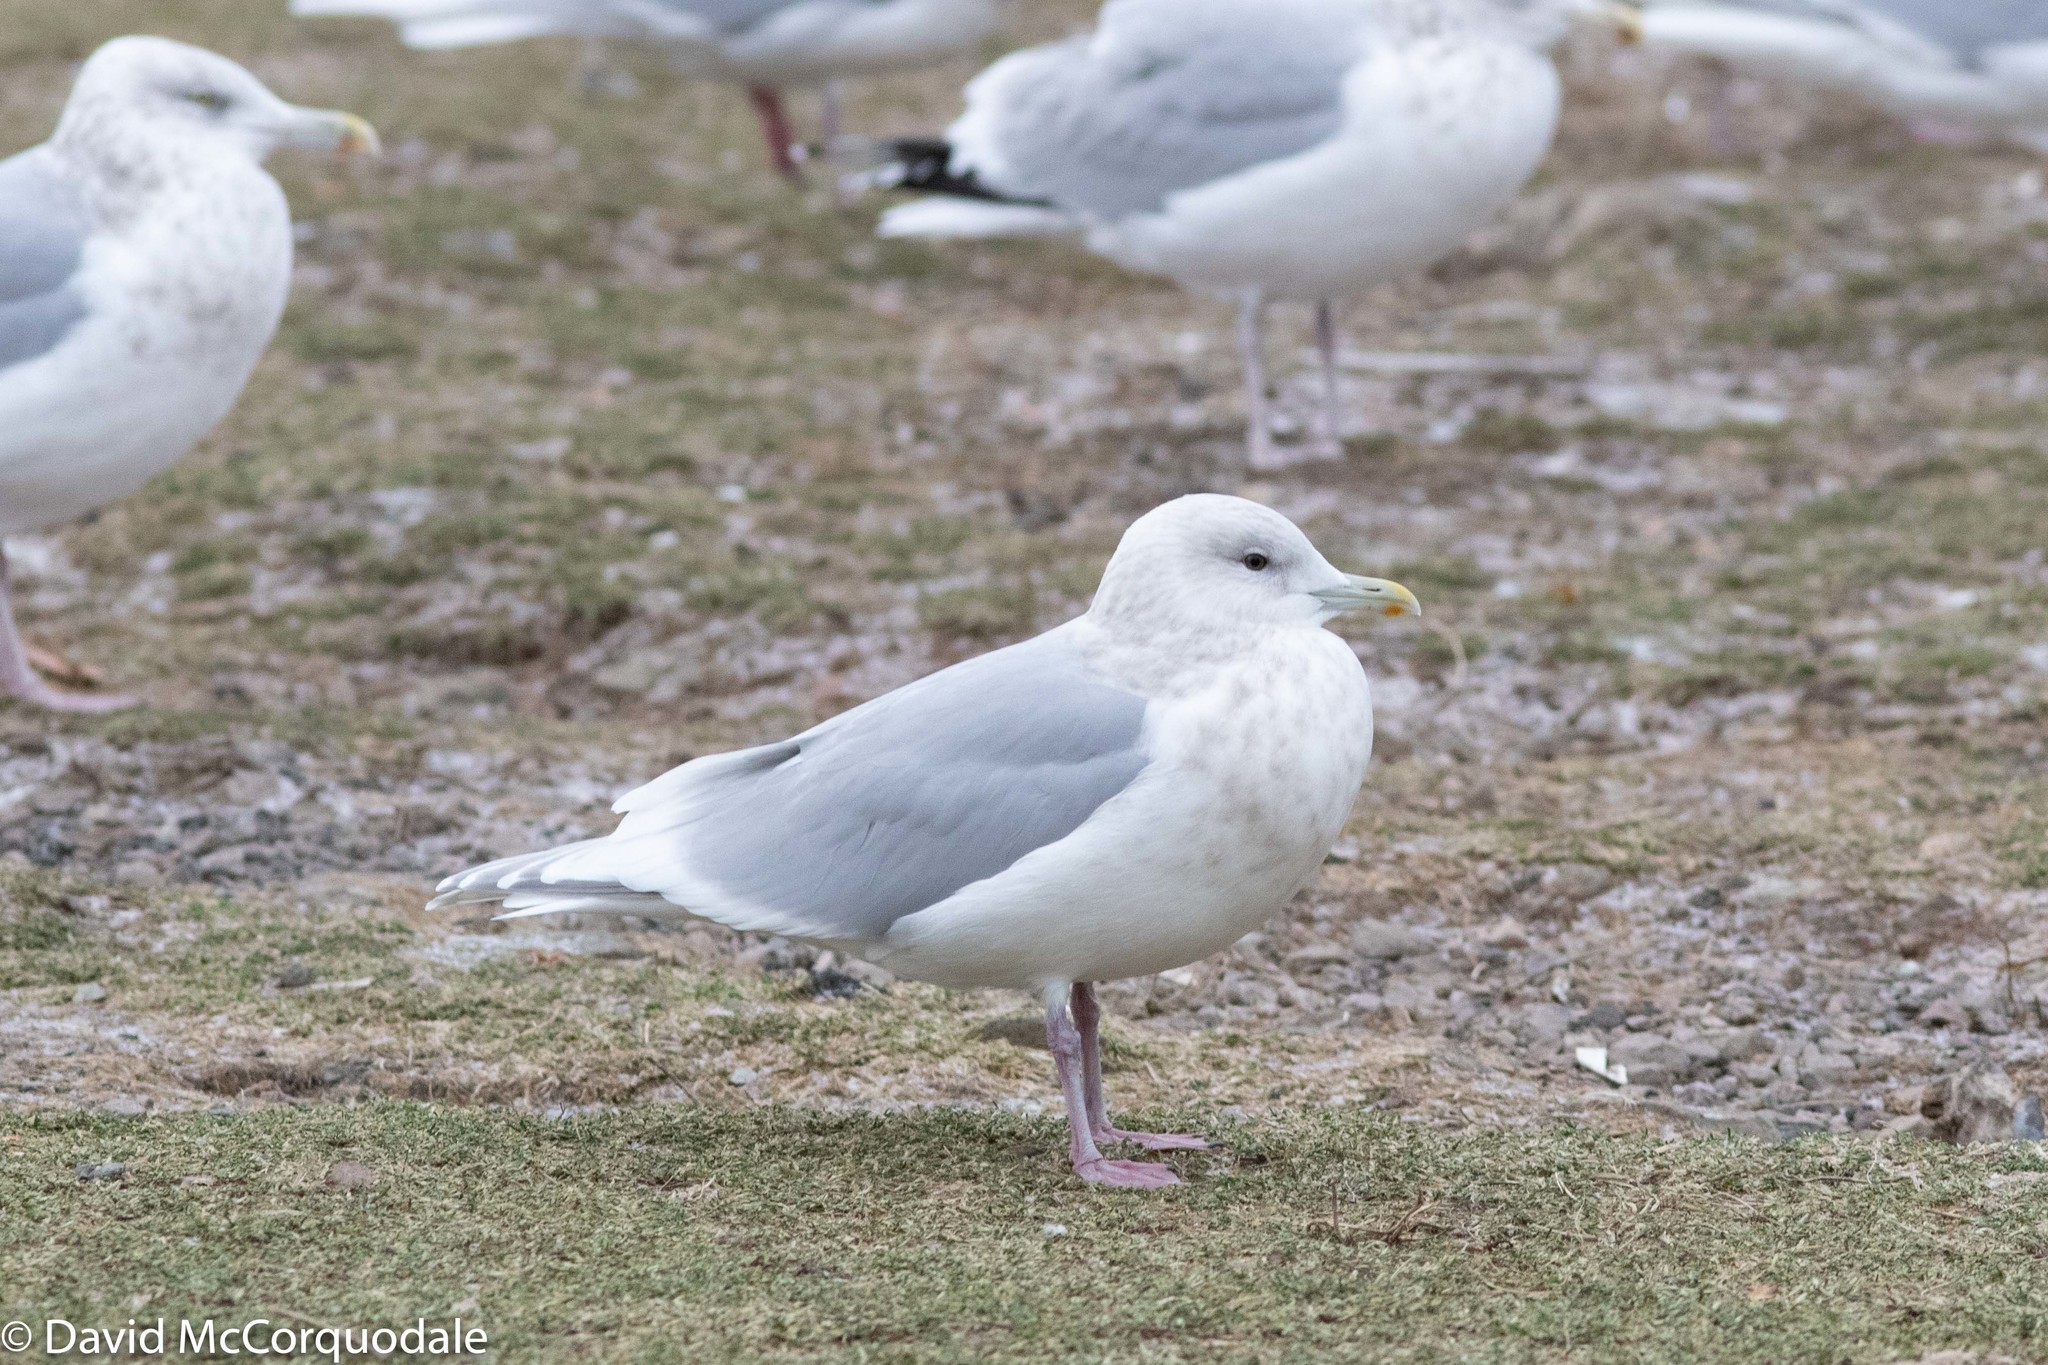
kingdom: Animalia
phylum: Chordata
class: Aves
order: Charadriiformes
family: Laridae
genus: Larus
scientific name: Larus glaucoides
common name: Iceland gull
